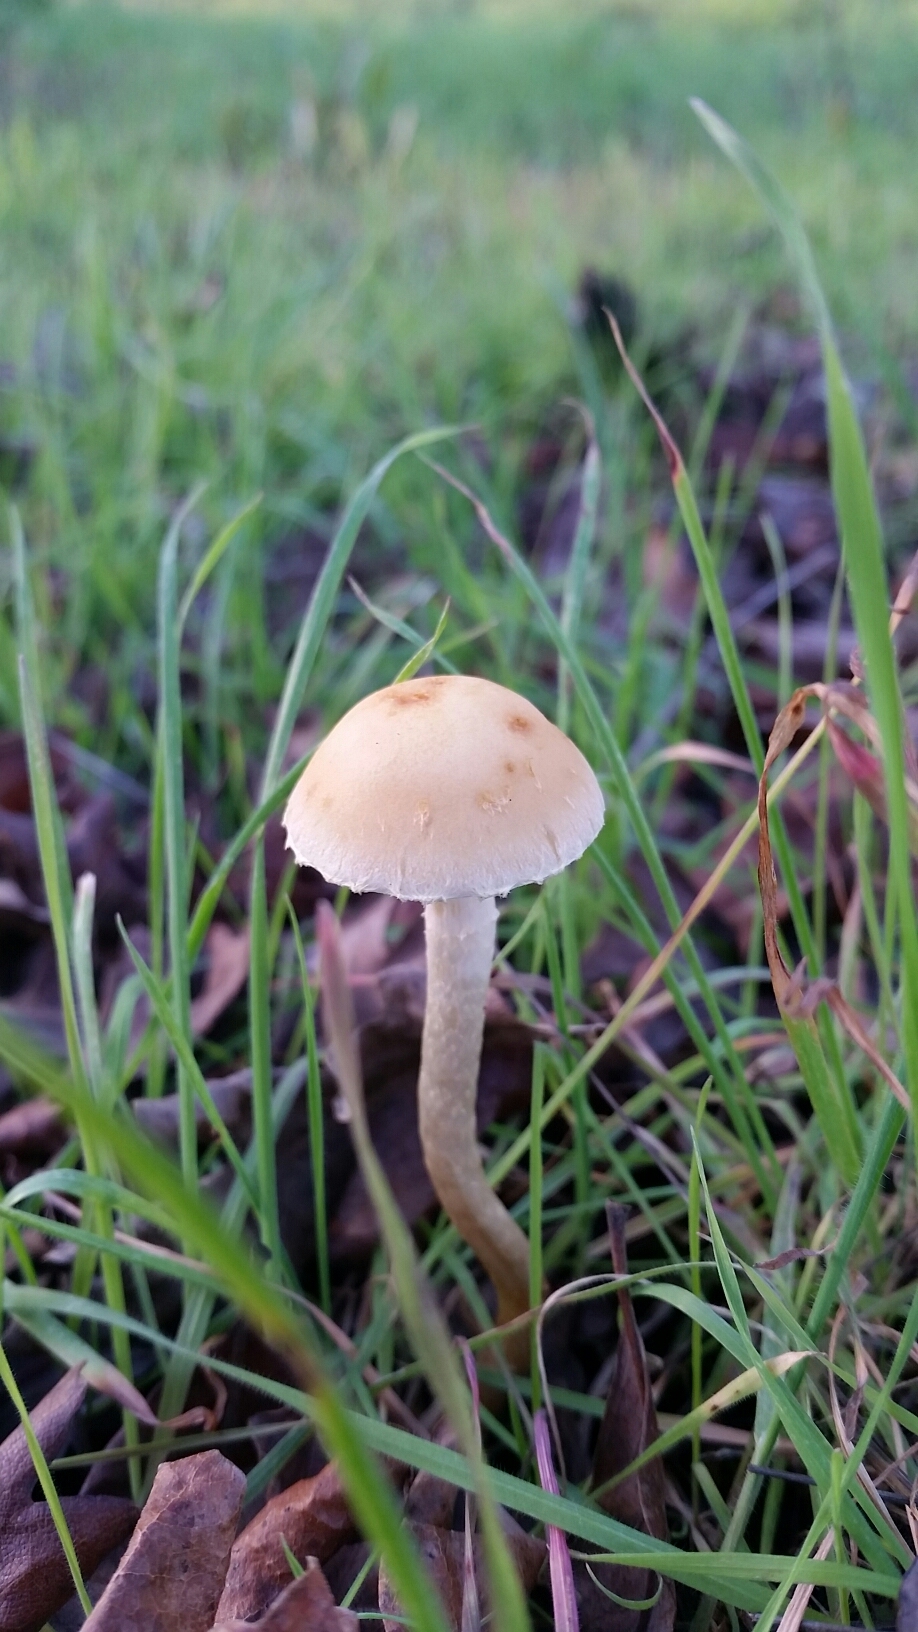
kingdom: Fungi
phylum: Basidiomycota
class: Agaricomycetes
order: Agaricales
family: Strophariaceae
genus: Leratiomyces
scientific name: Leratiomyces percevalii
